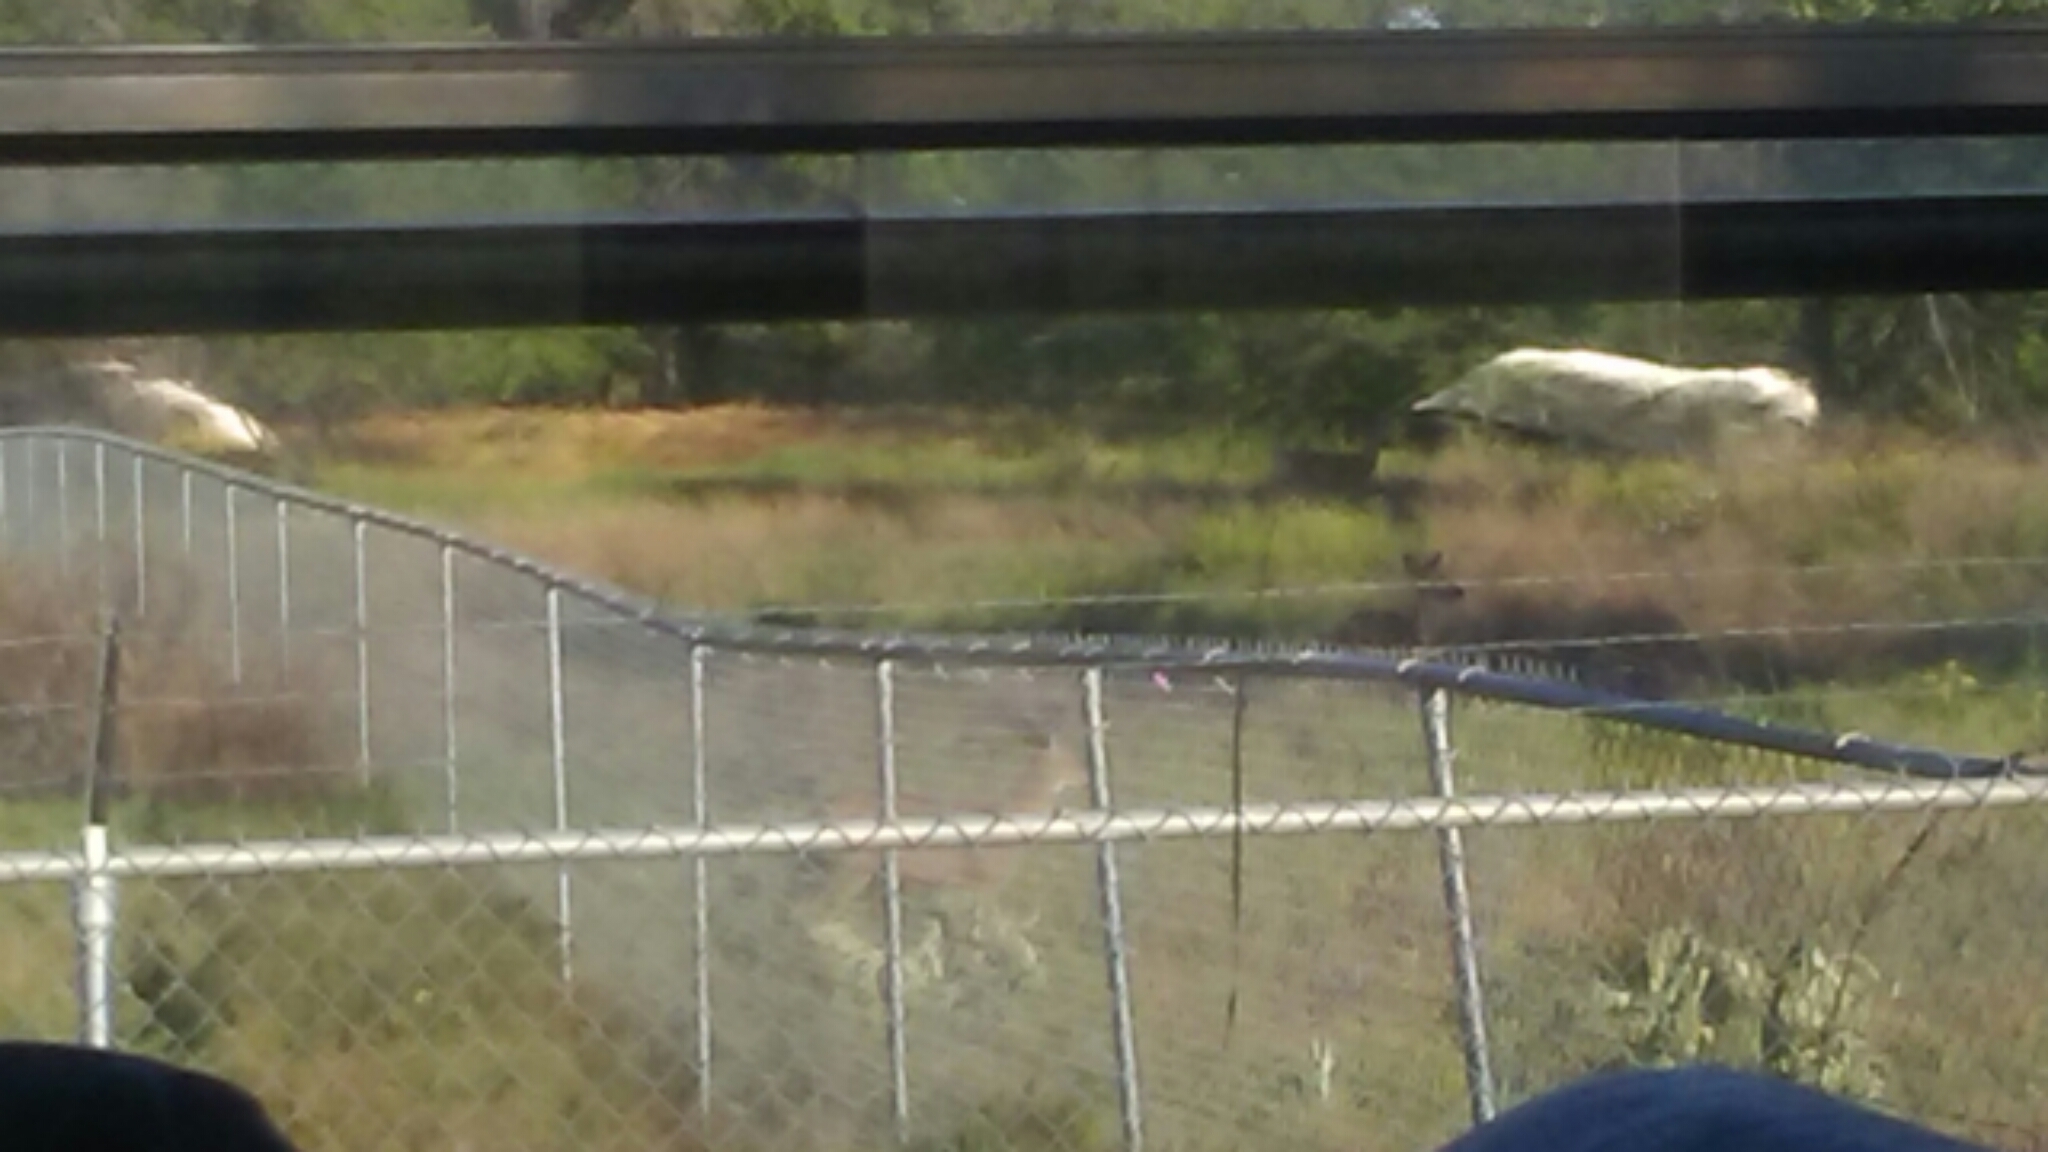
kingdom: Animalia
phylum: Chordata
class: Mammalia
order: Artiodactyla
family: Cervidae
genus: Odocoileus
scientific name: Odocoileus hemionus
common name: Mule deer
